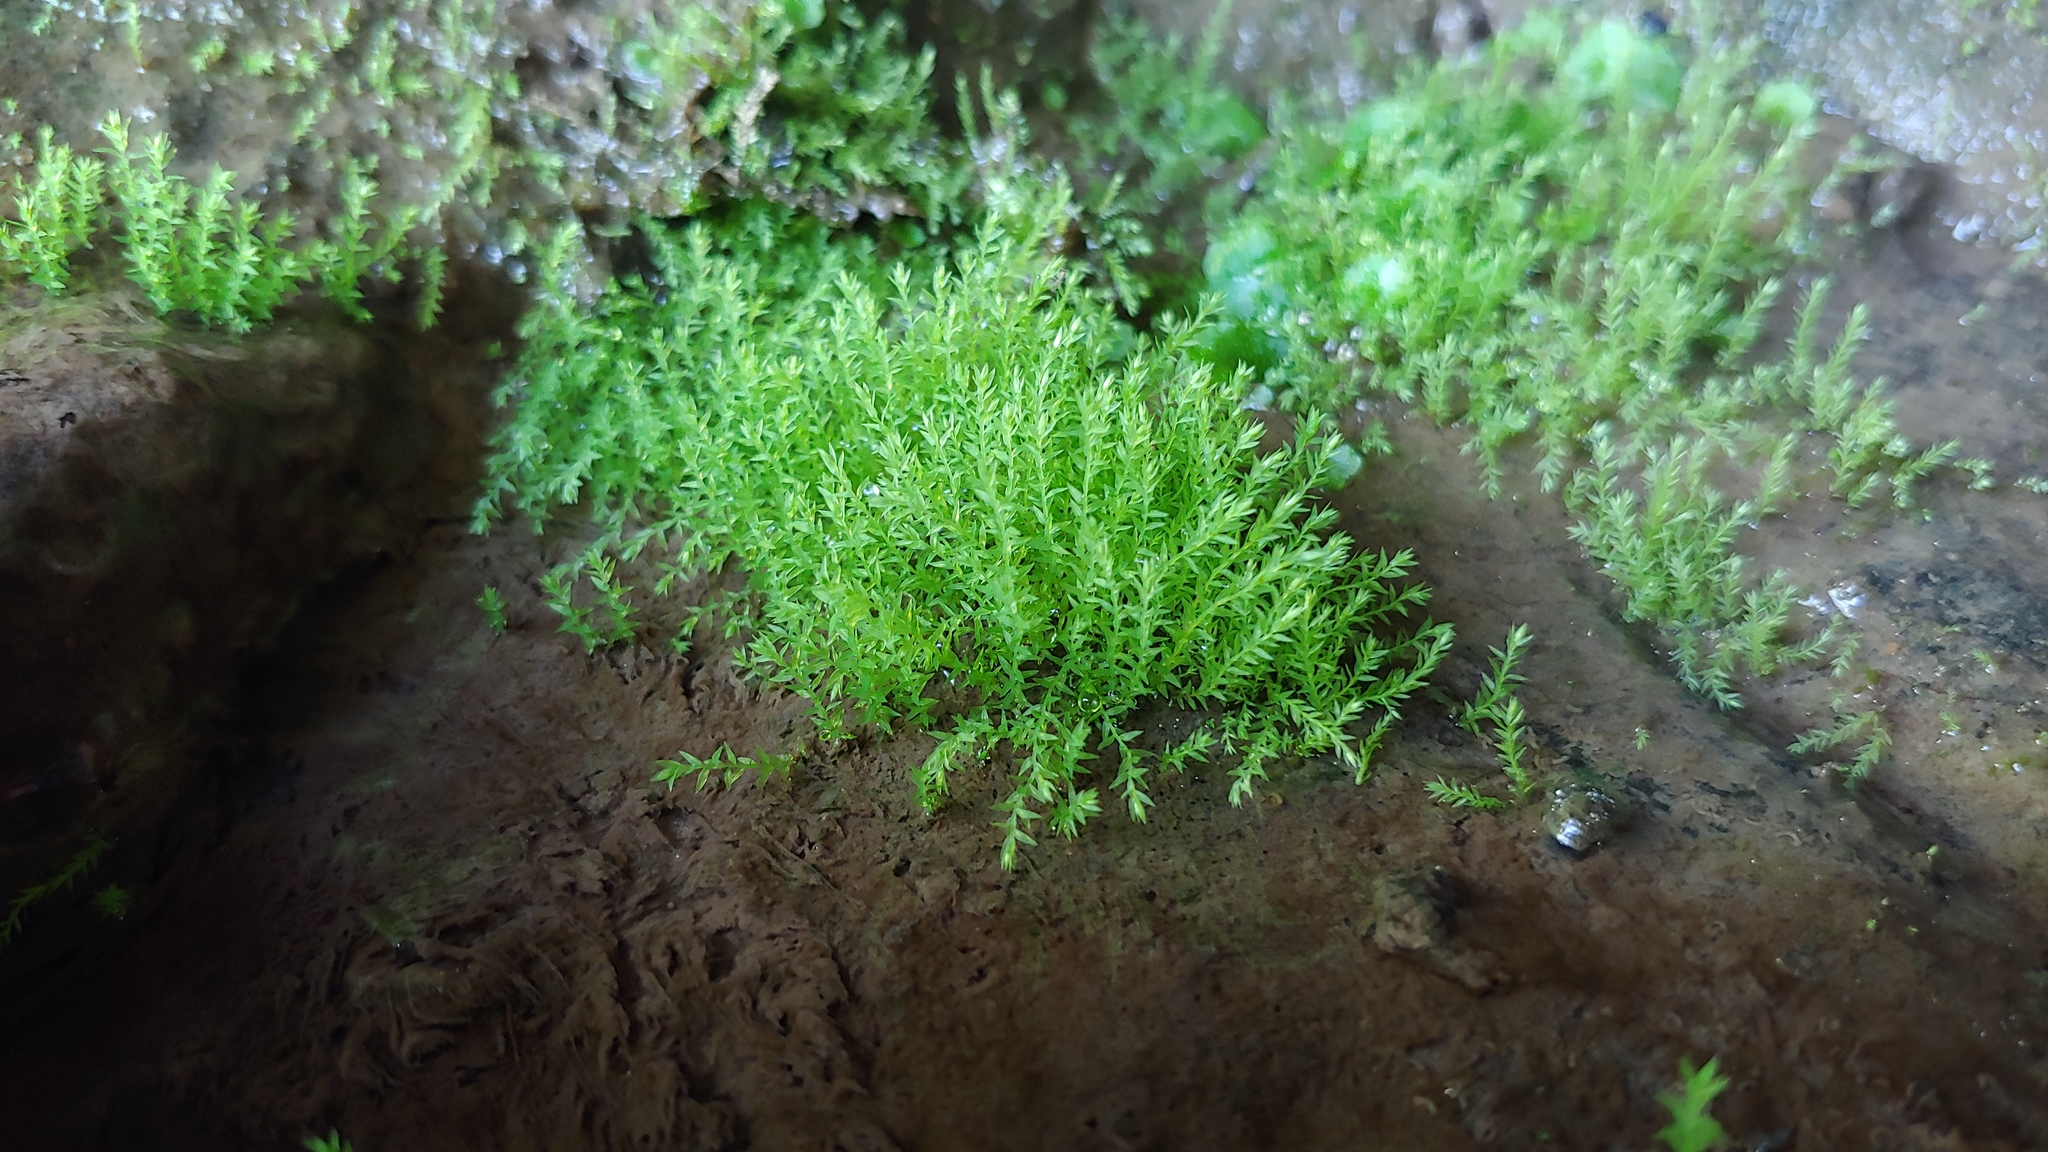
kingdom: Plantae
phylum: Bryophyta
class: Bryopsida
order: Hypnales
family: Brachytheciaceae
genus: Oxyrrhynchium
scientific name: Oxyrrhynchium hians
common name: Spreading beaked moss
